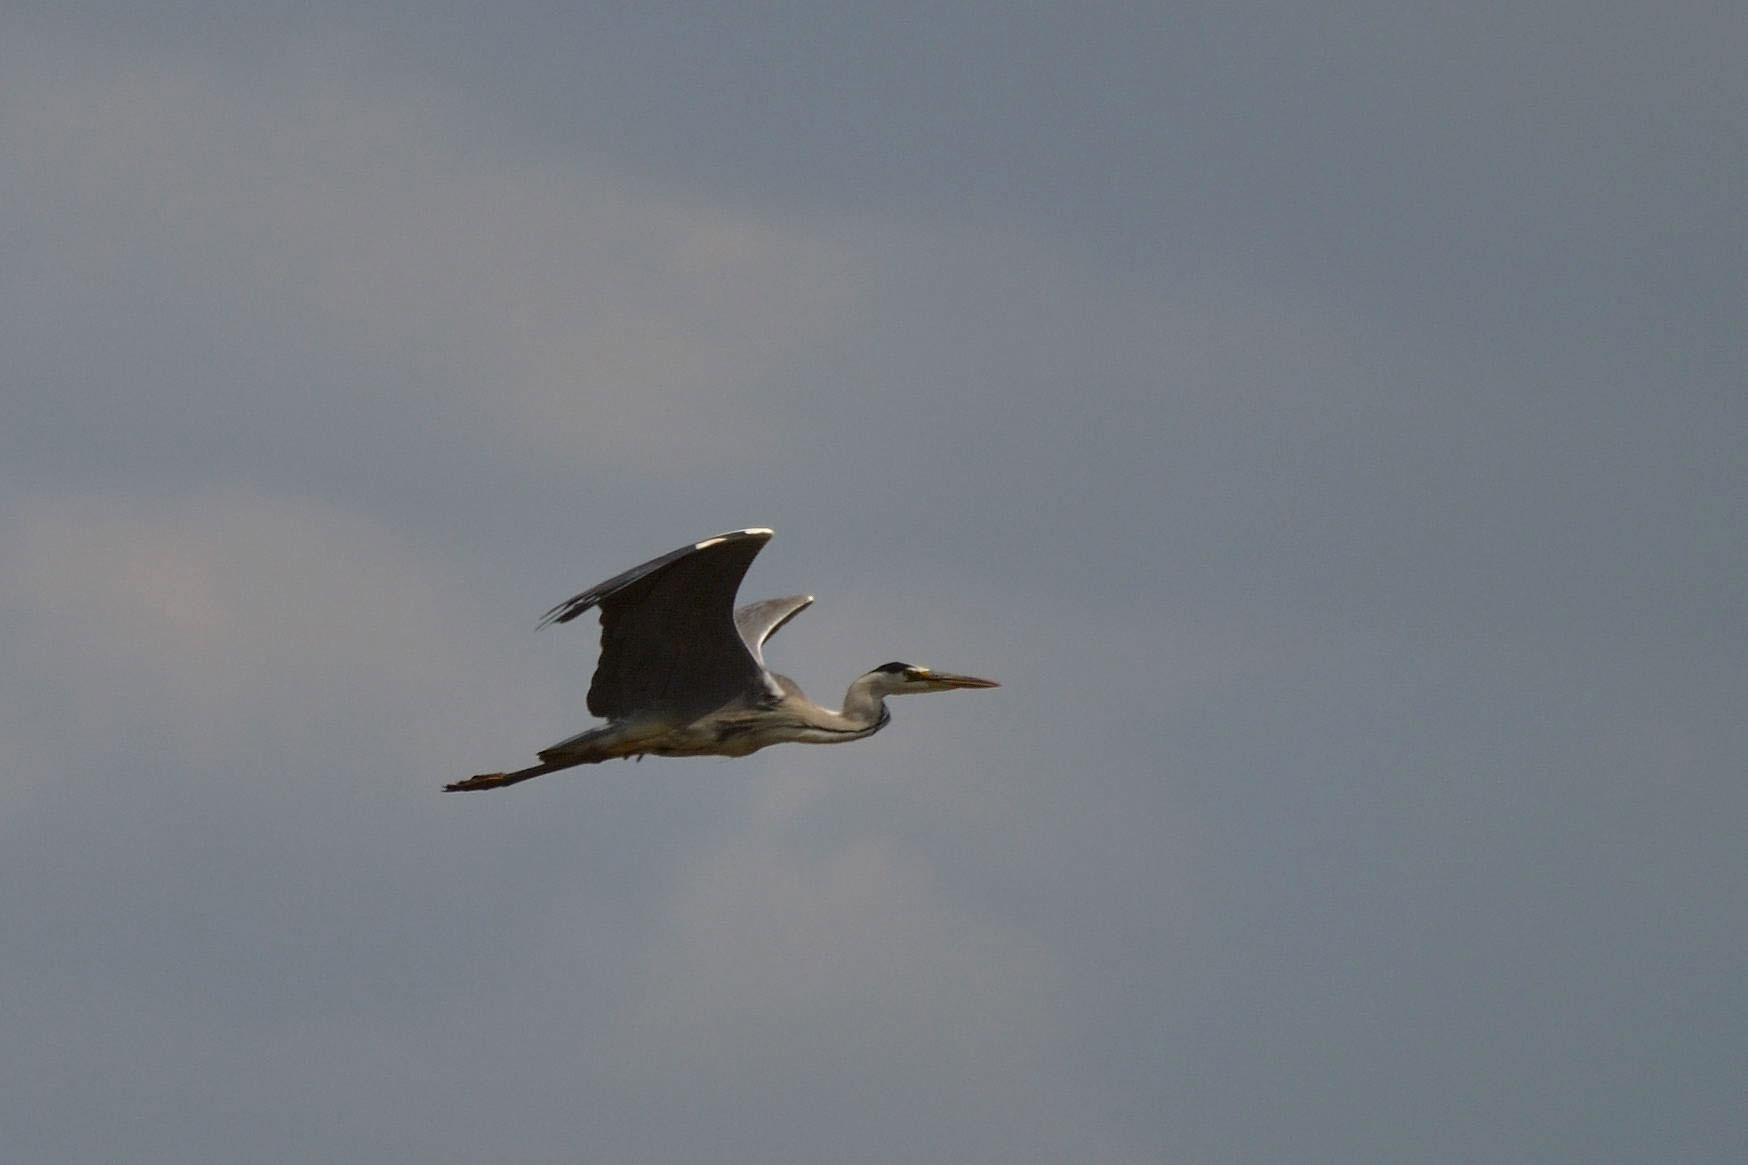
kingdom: Animalia
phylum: Chordata
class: Aves
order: Pelecaniformes
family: Ardeidae
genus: Ardea
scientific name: Ardea cinerea
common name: Grey heron
